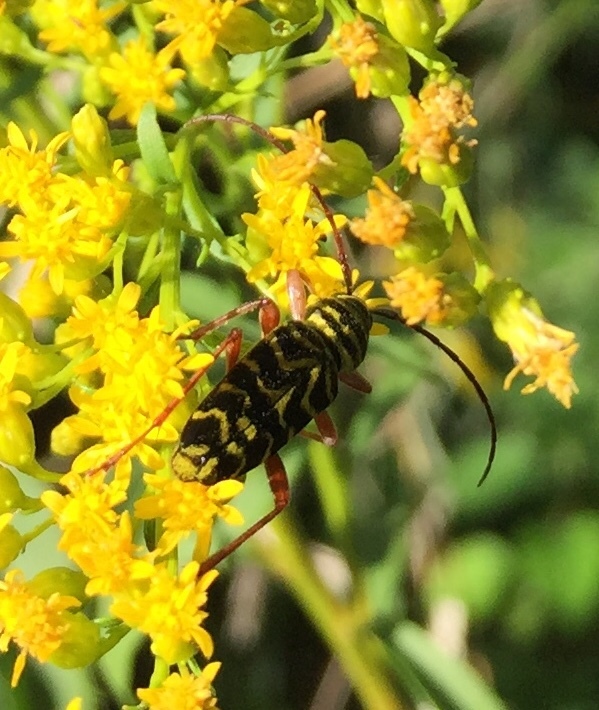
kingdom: Animalia
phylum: Arthropoda
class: Insecta
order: Coleoptera
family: Cerambycidae
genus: Megacyllene
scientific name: Megacyllene robiniae
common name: Locust borer
